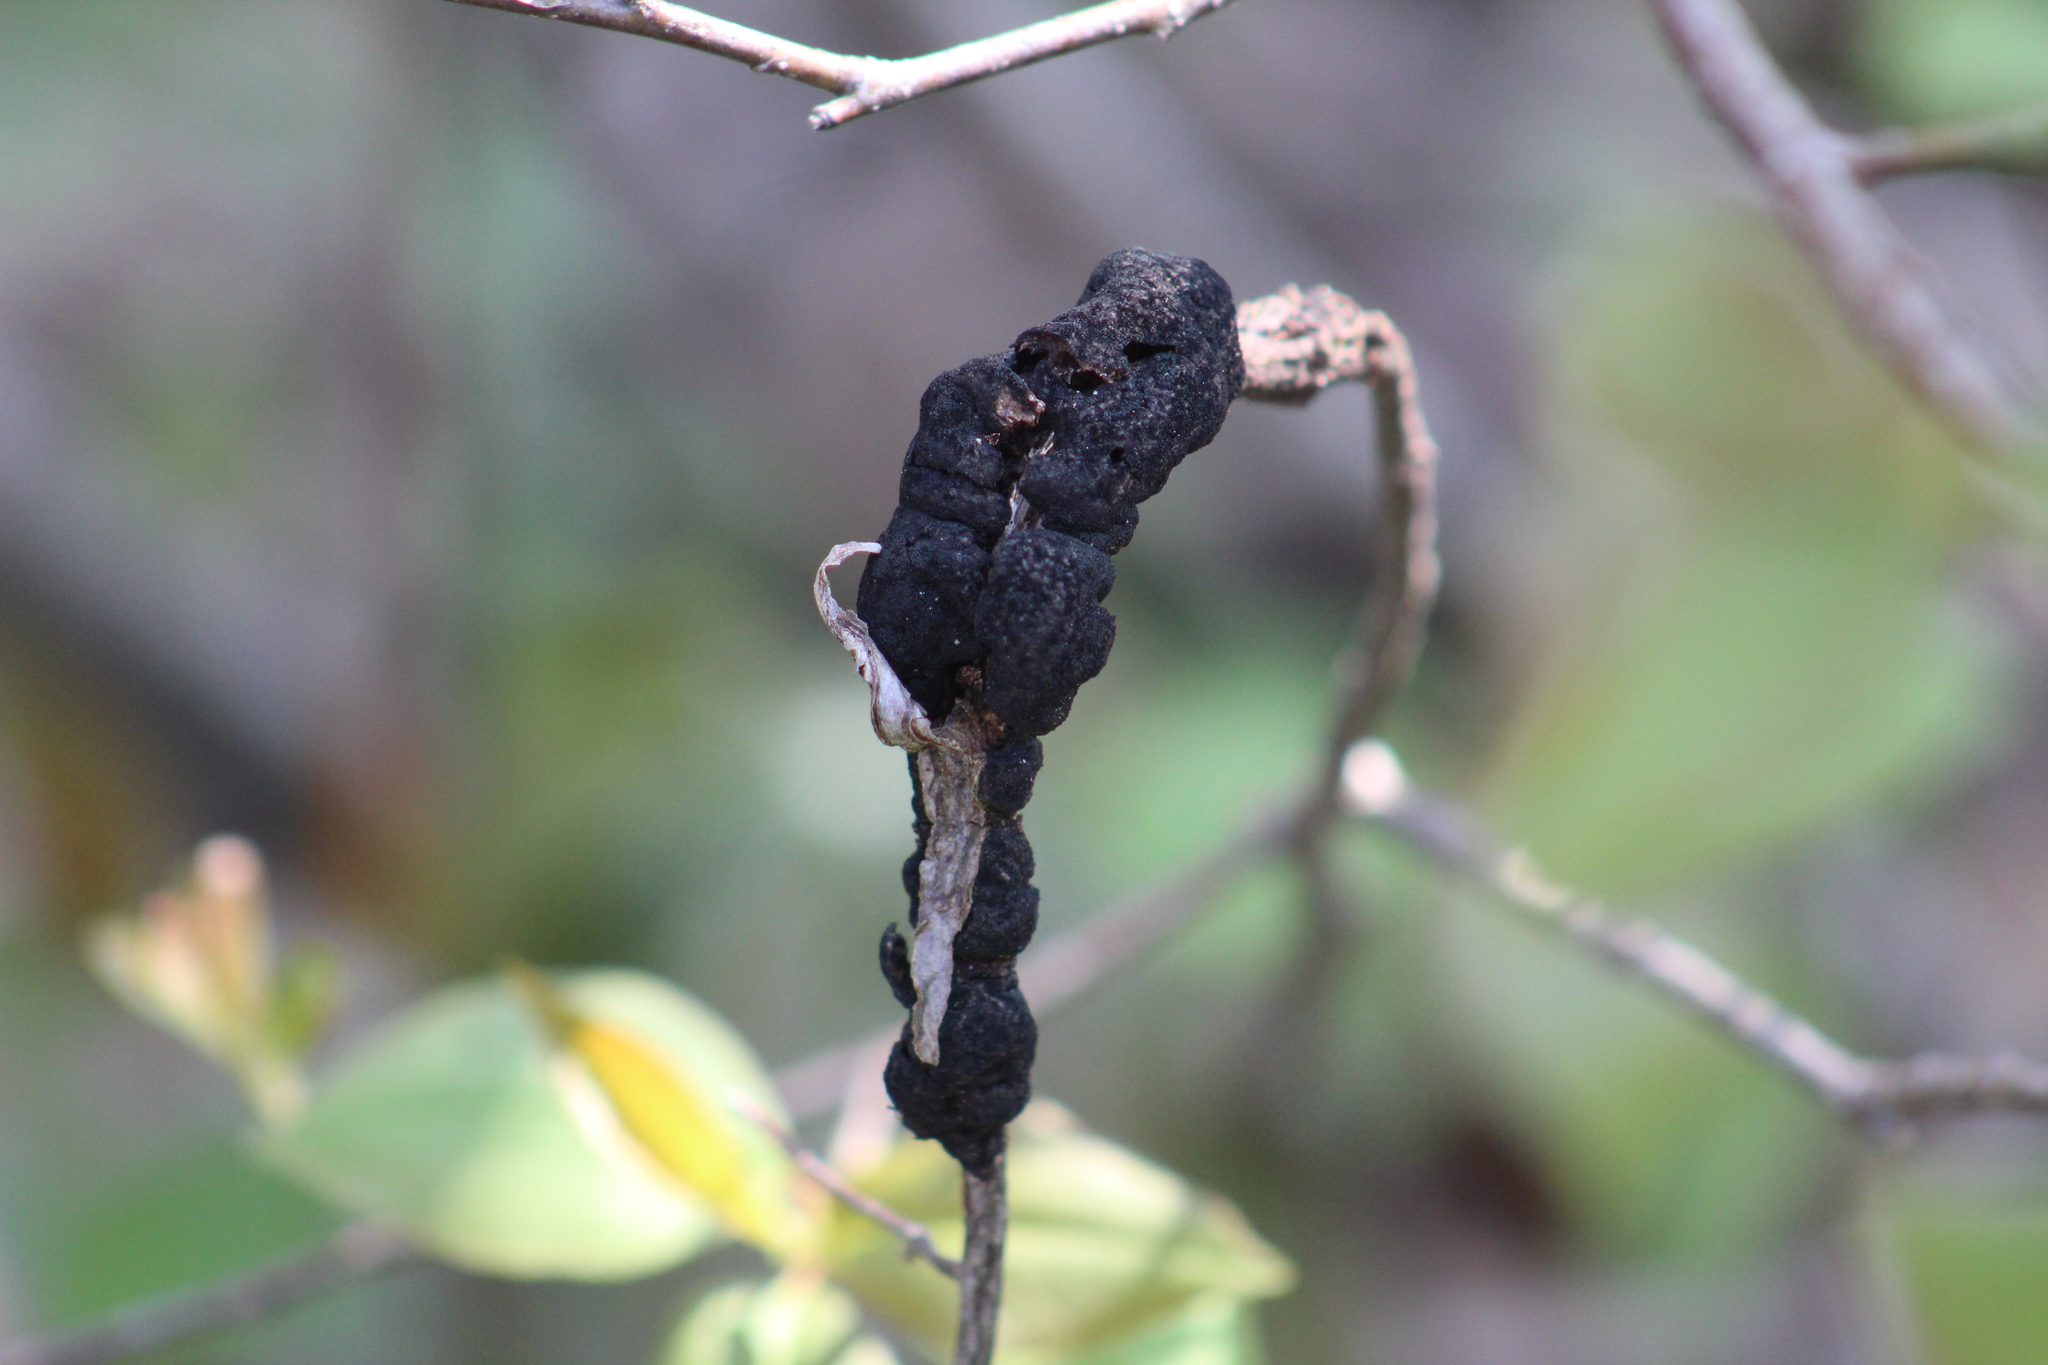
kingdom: Fungi
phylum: Ascomycota
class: Dothideomycetes
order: Venturiales
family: Venturiaceae
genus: Apiosporina
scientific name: Apiosporina morbosa
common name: Black knot
